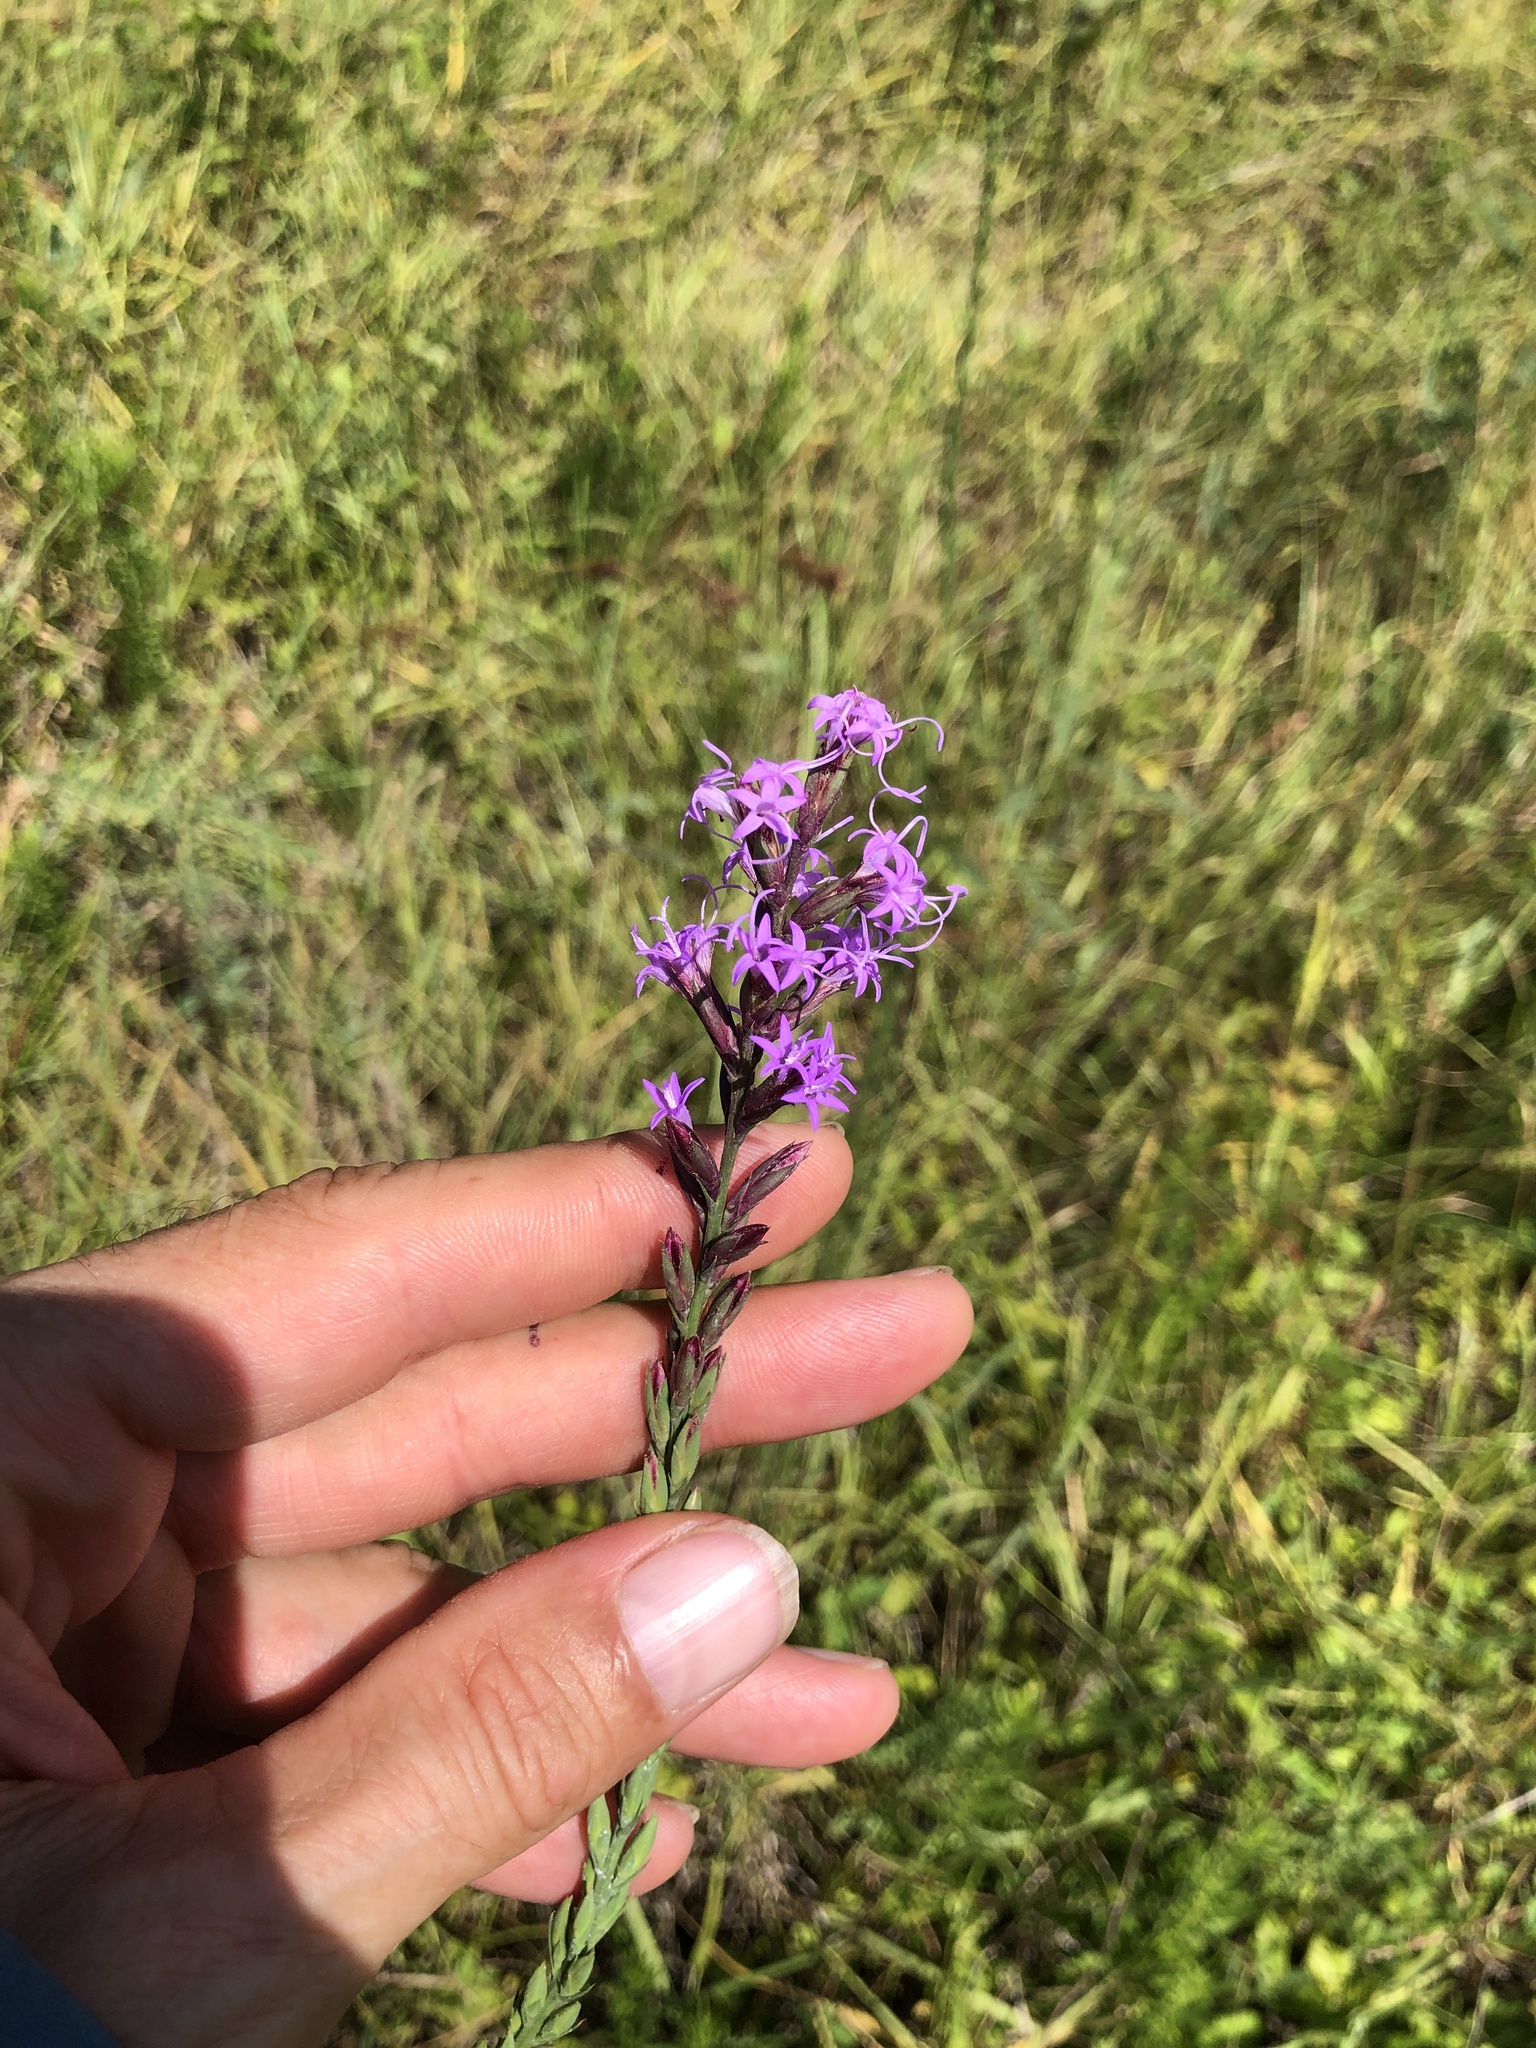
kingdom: Plantae
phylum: Tracheophyta
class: Magnoliopsida
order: Asterales
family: Asteraceae
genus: Liatris
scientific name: Liatris acidota
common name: Gulf coast gayfeather
